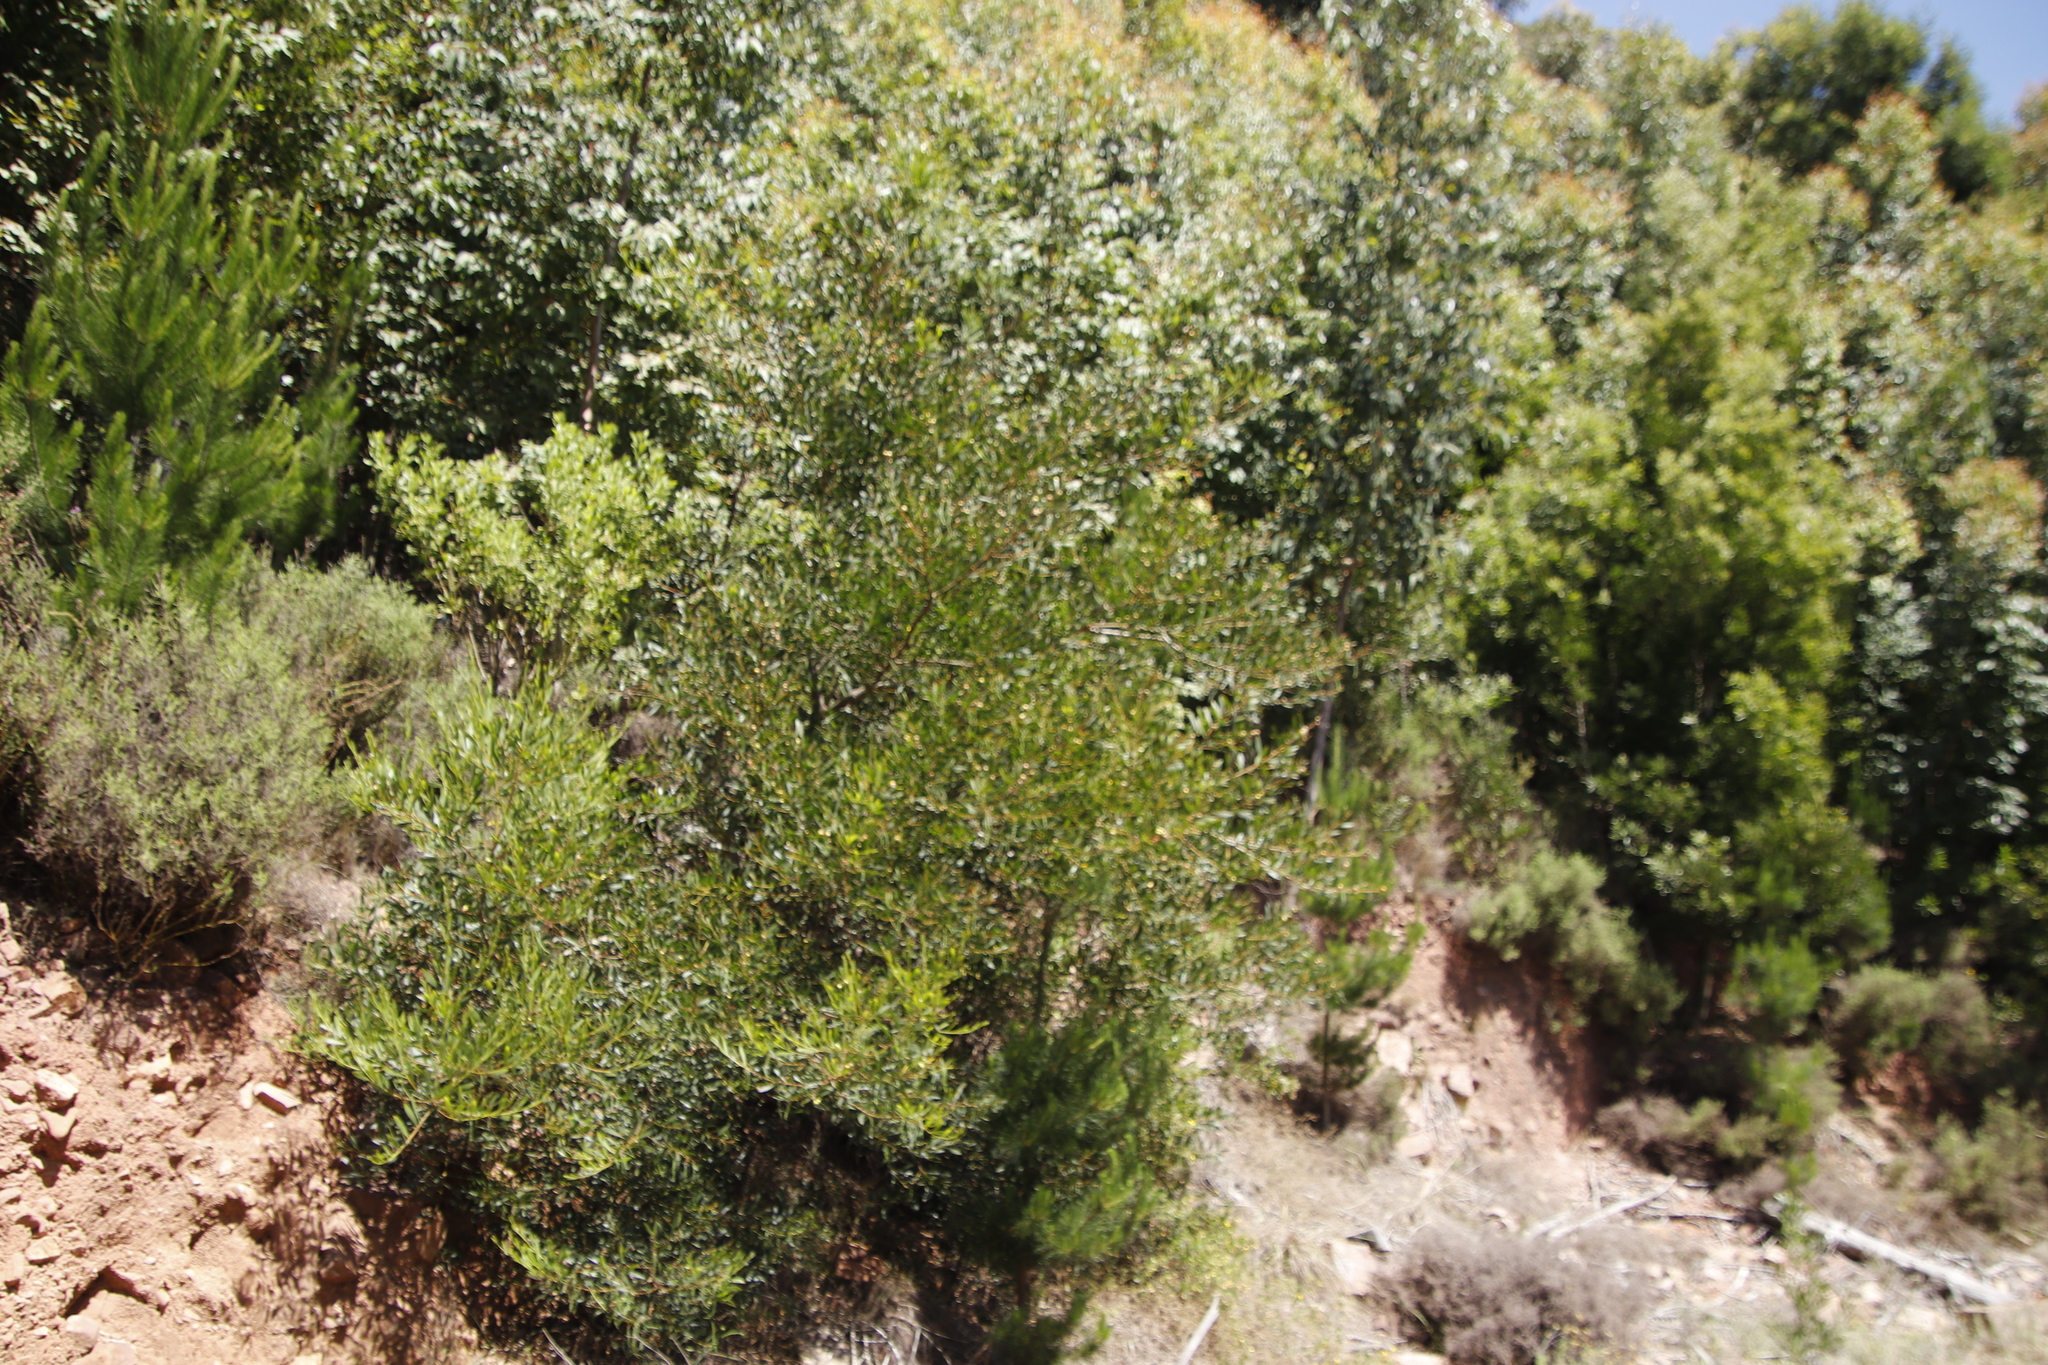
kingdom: Plantae
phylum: Tracheophyta
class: Magnoliopsida
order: Fabales
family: Fabaceae
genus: Acacia
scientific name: Acacia melanoxylon
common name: Blackwood
